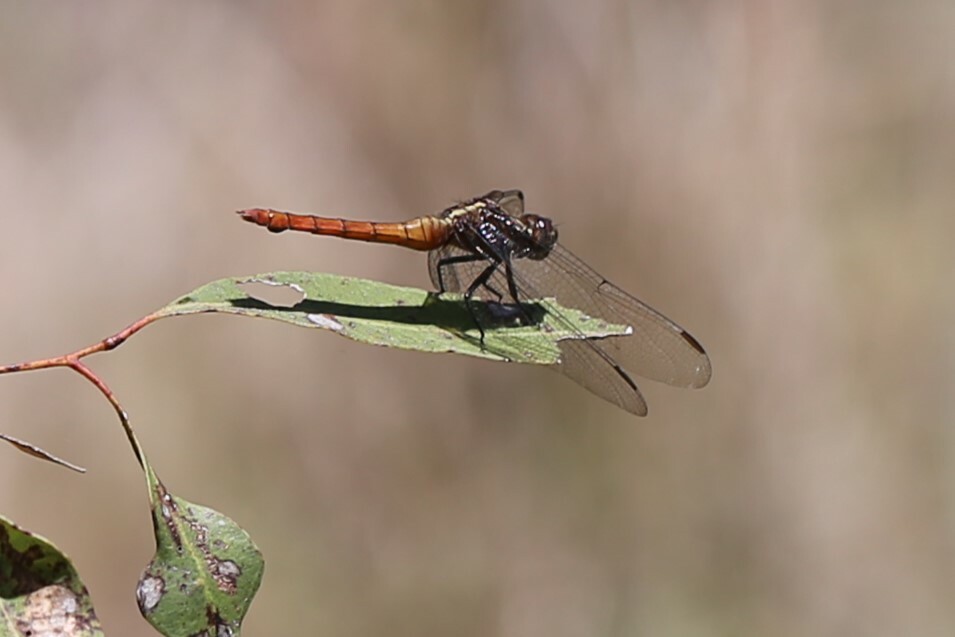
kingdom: Animalia
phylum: Arthropoda
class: Insecta
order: Odonata
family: Libellulidae
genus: Orthetrum
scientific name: Orthetrum villosovittatum
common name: Firery skimmer
